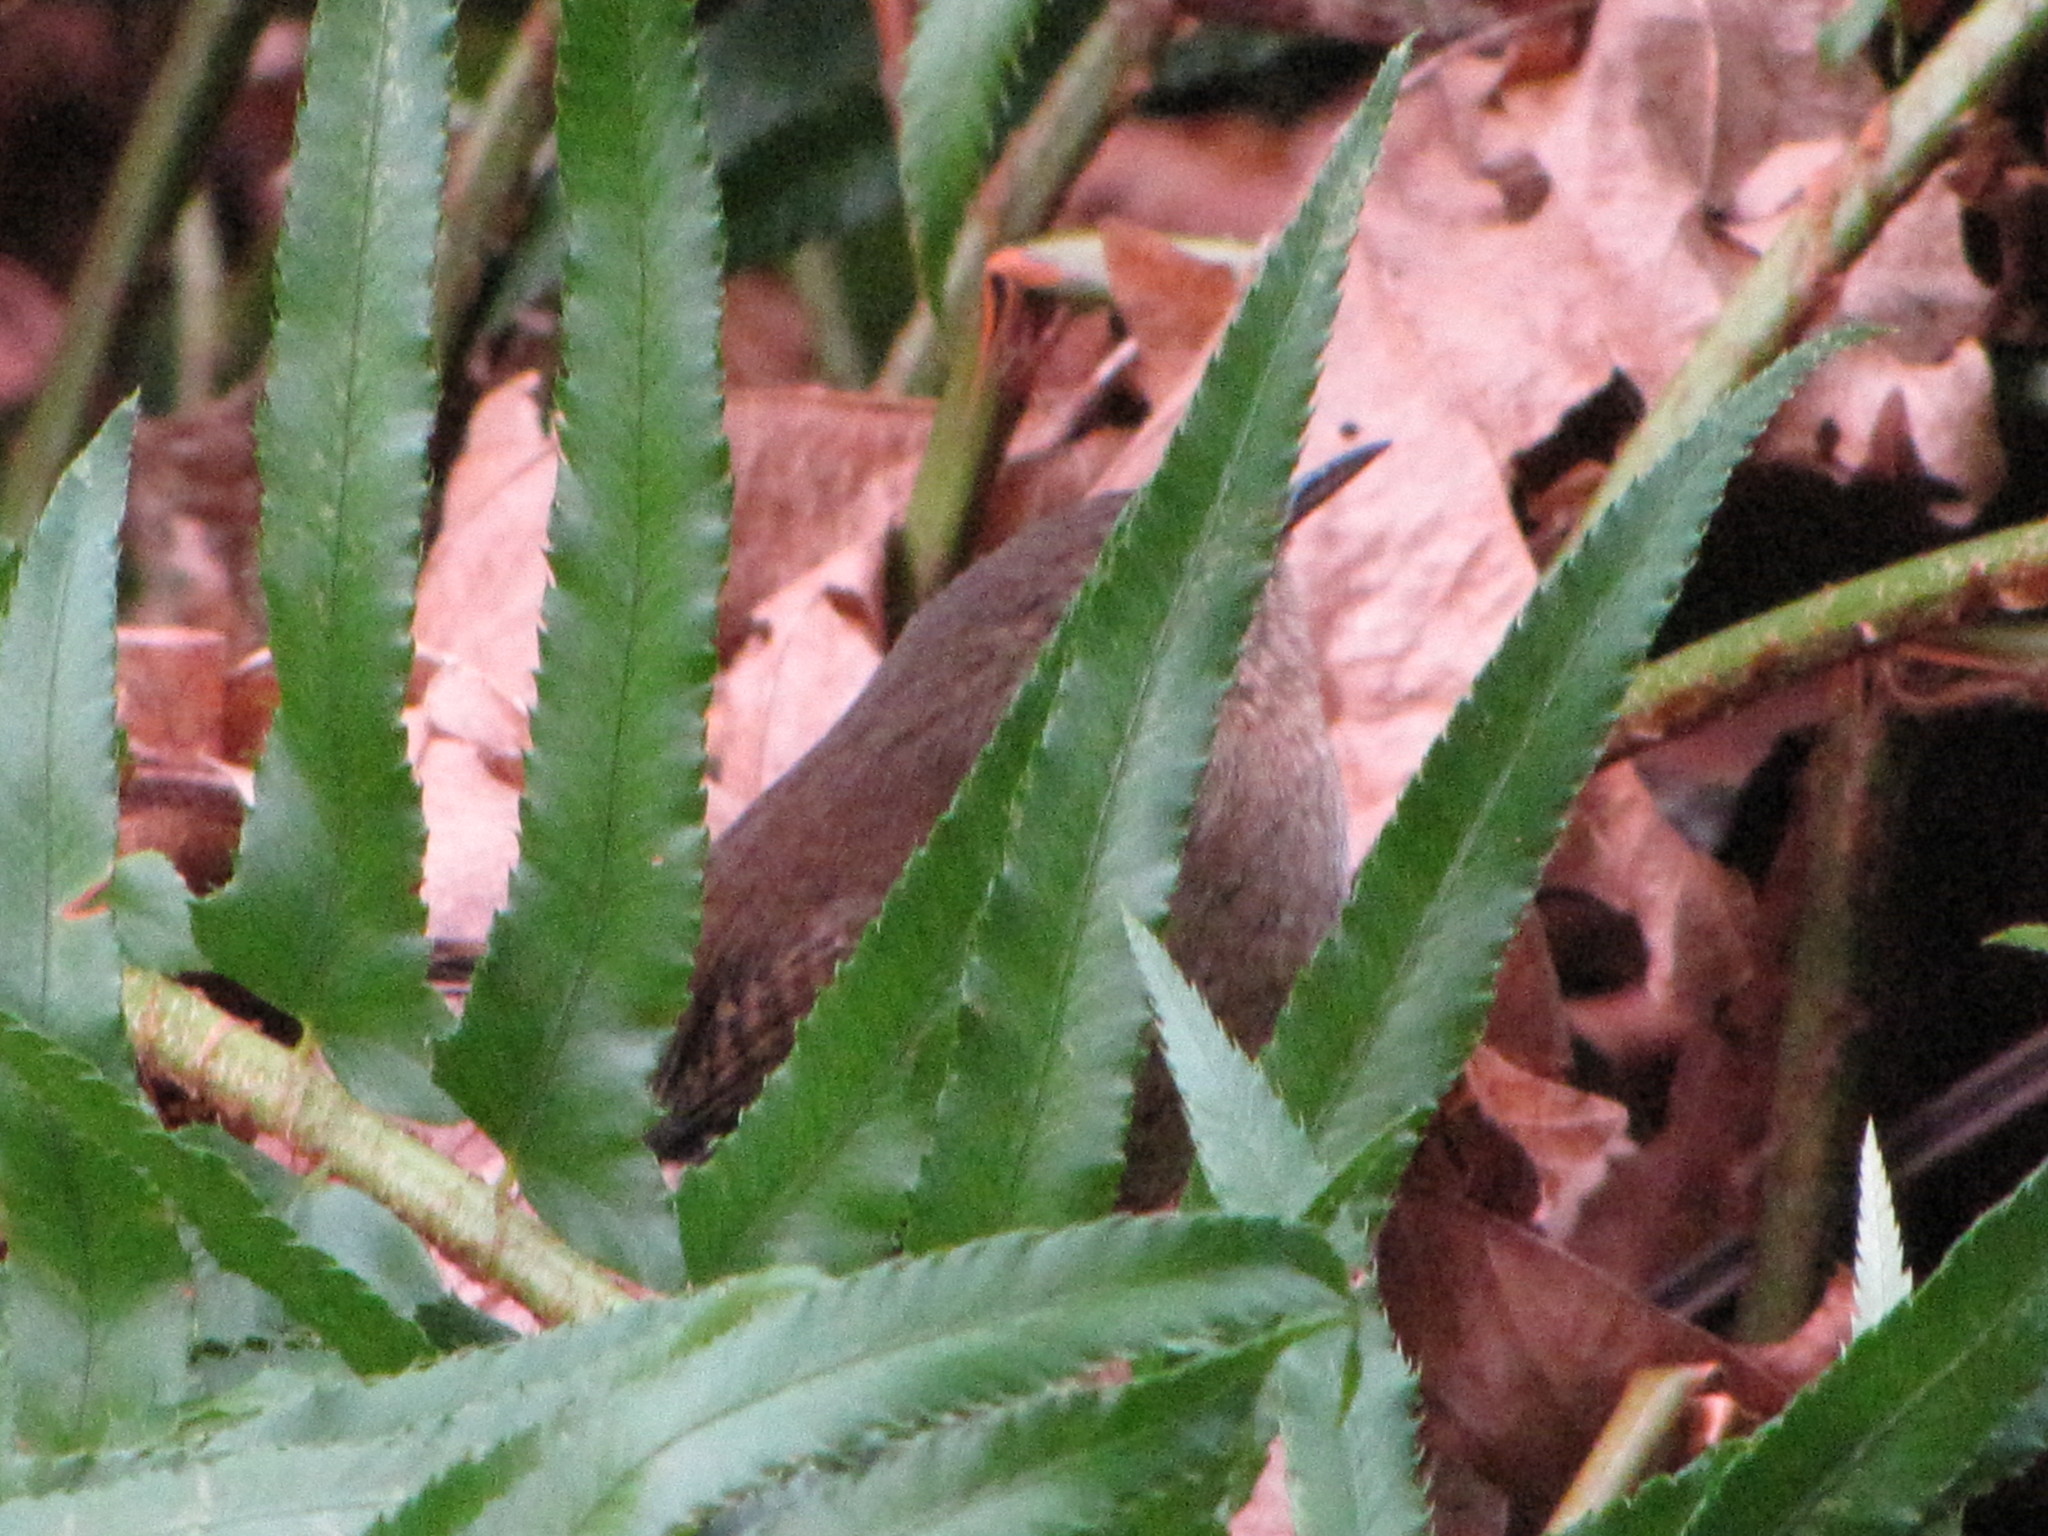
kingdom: Animalia
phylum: Chordata
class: Aves
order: Passeriformes
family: Troglodytidae
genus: Troglodytes
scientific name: Troglodytes pacificus
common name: Pacific wren
